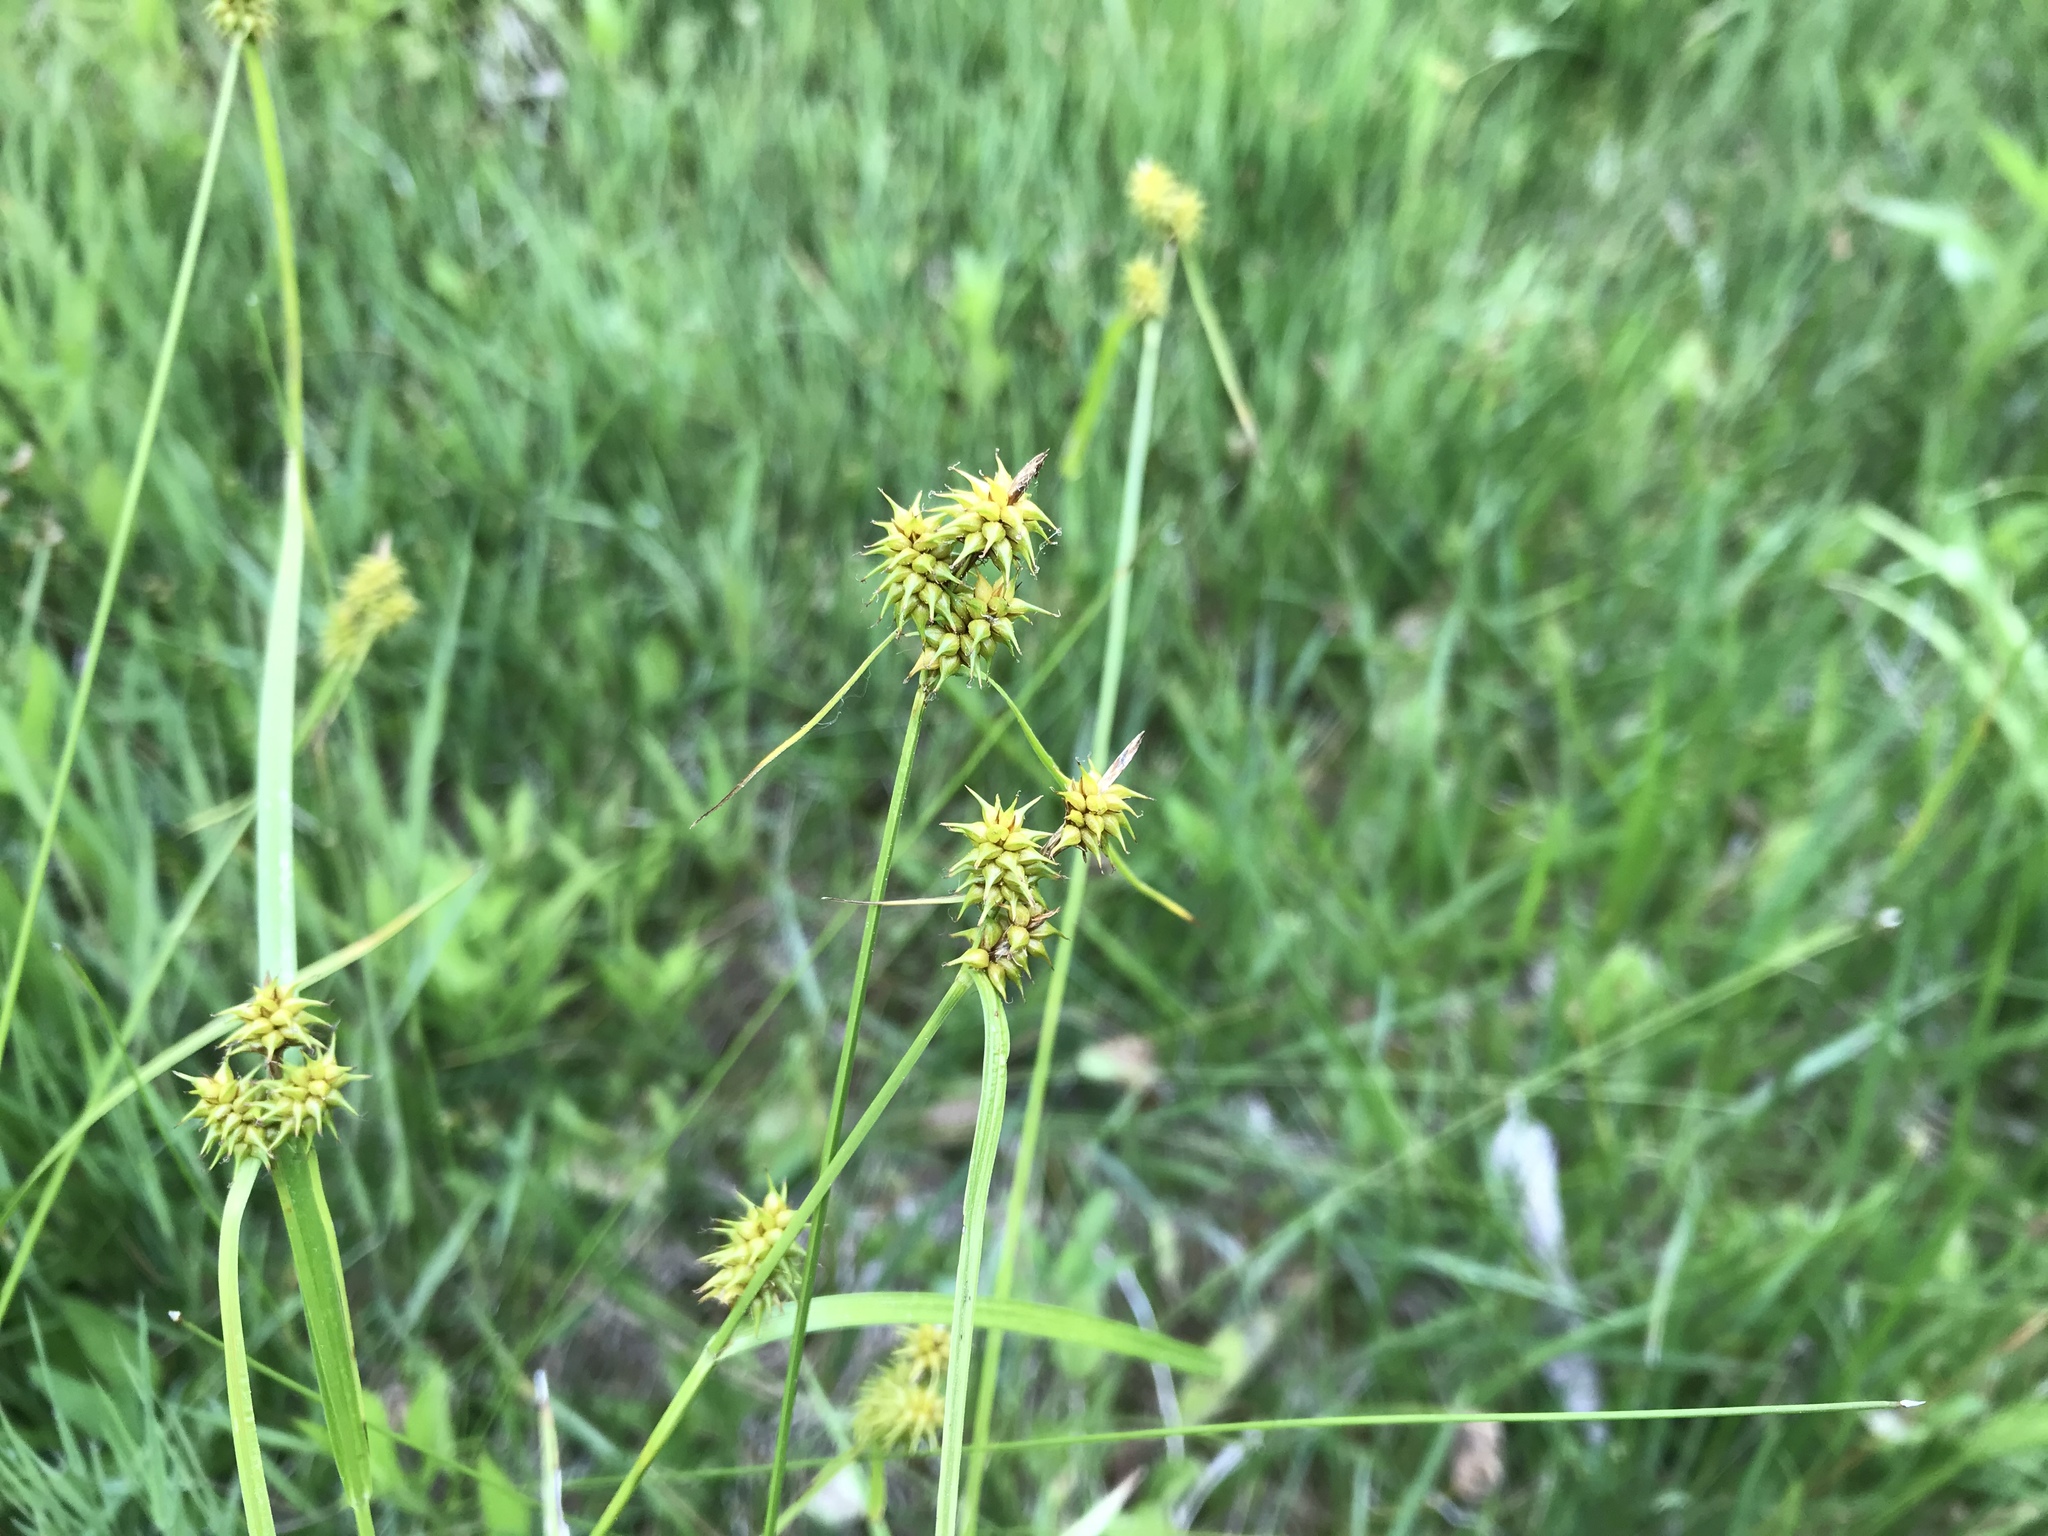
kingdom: Plantae
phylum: Tracheophyta
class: Liliopsida
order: Poales
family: Cyperaceae
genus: Carex
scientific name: Carex flava
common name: Large yellow-sedge
